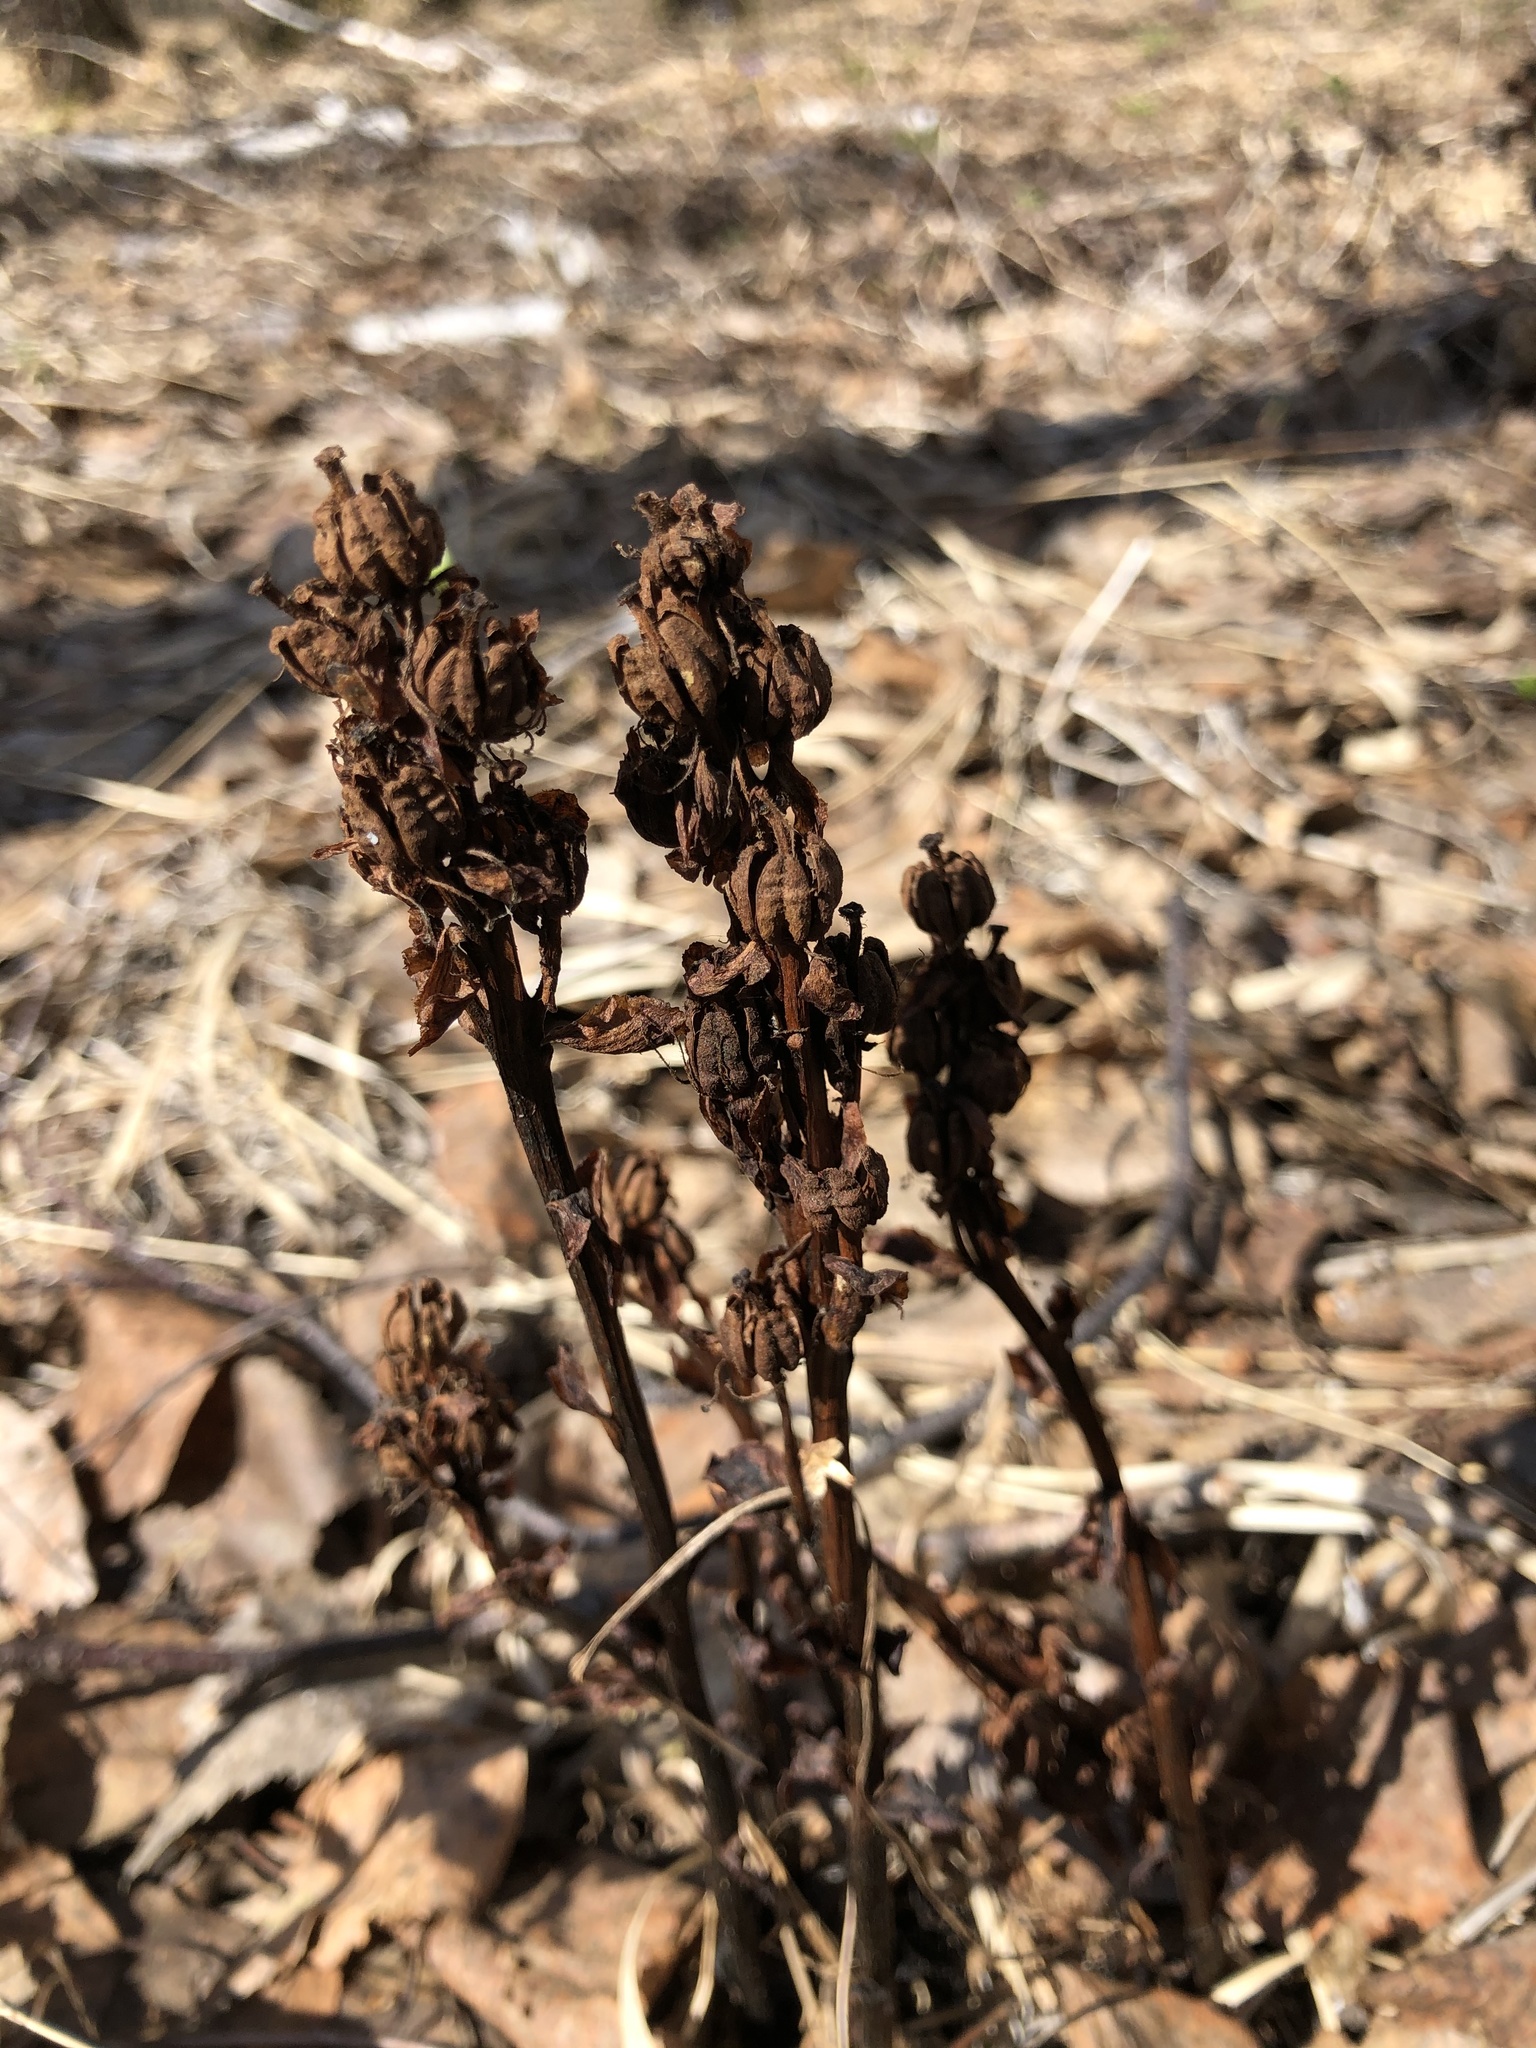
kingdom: Plantae
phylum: Tracheophyta
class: Magnoliopsida
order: Ericales
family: Ericaceae
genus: Hypopitys
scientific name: Hypopitys monotropa
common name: Yellow bird's-nest
